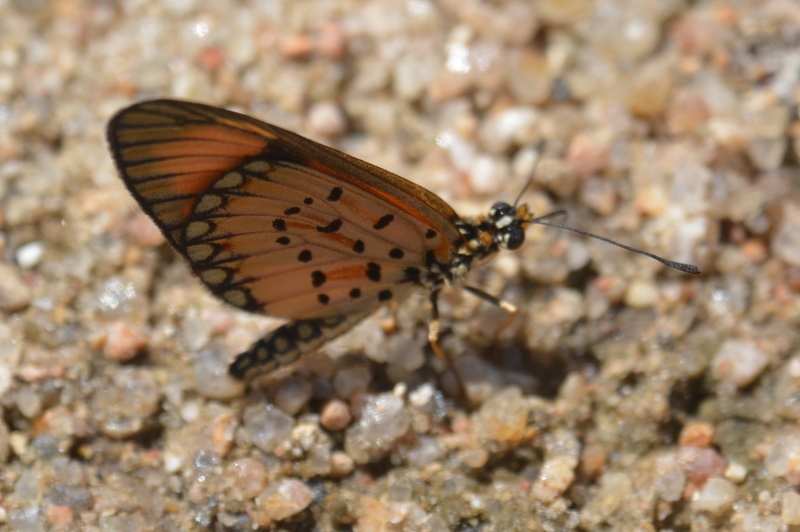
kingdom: Animalia
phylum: Arthropoda
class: Insecta
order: Lepidoptera
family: Nymphalidae
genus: Acraea
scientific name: Acraea Telchinia serena
